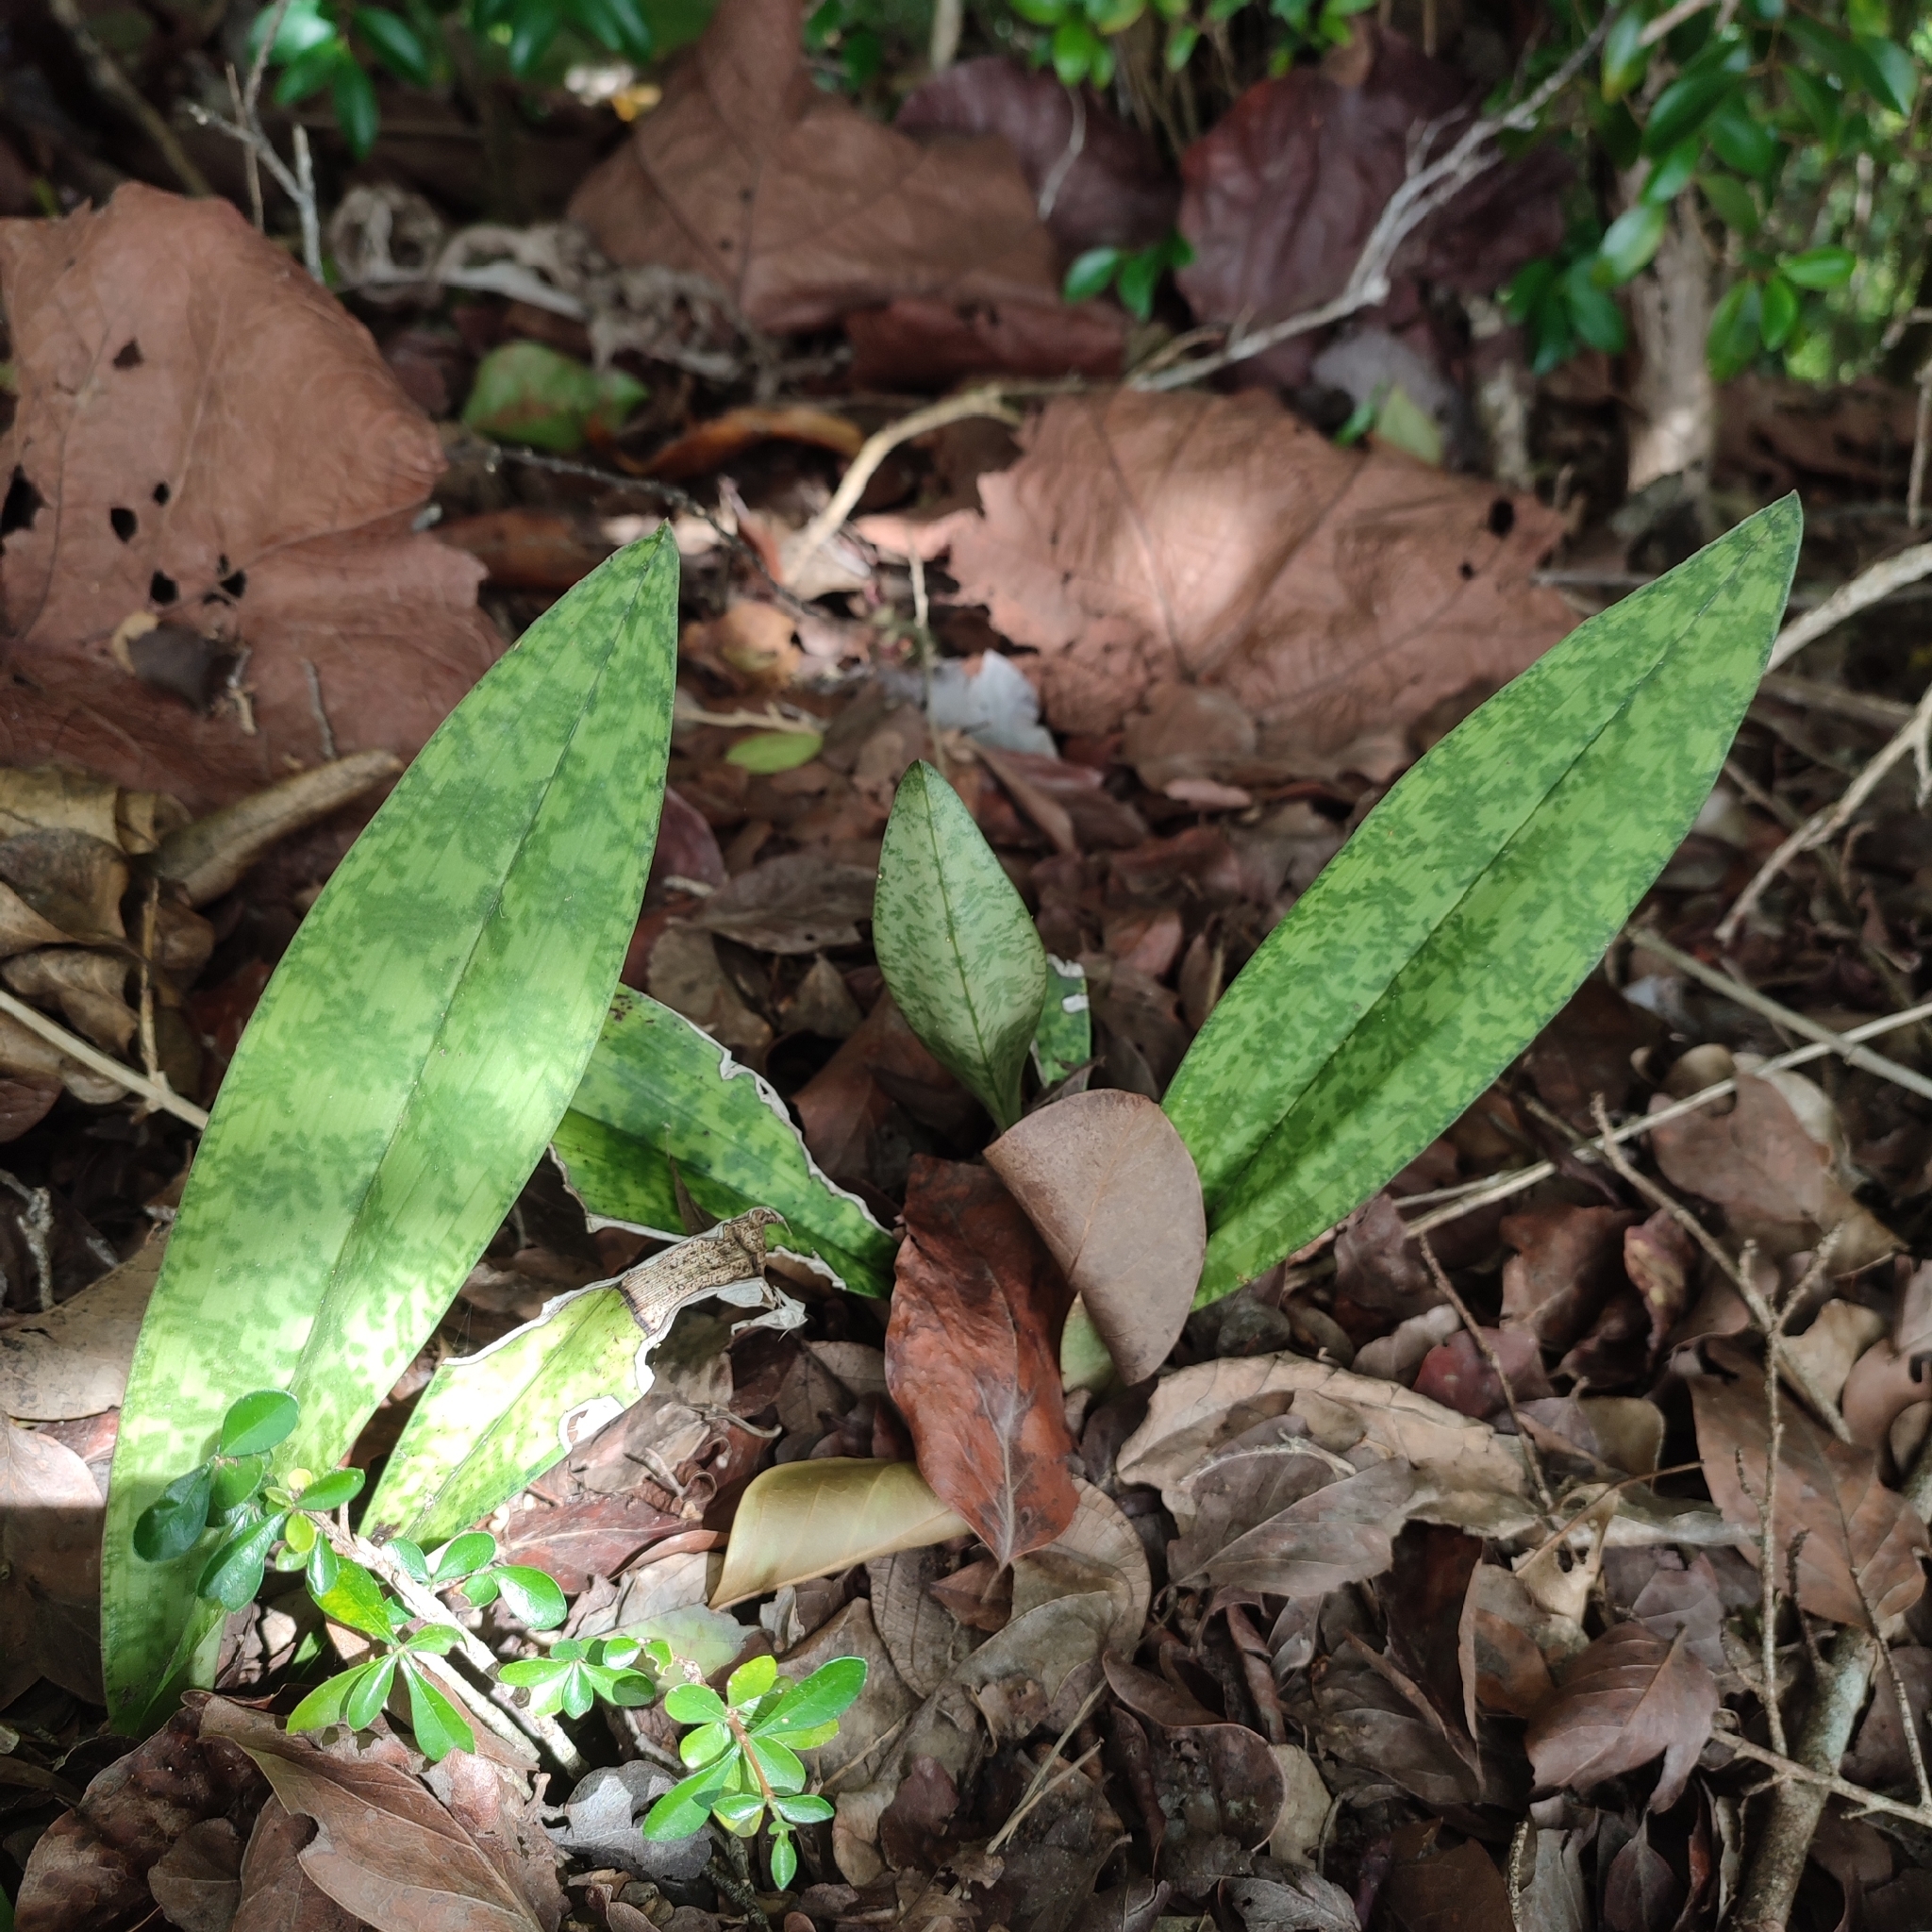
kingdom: Plantae
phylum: Tracheophyta
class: Liliopsida
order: Asparagales
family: Orchidaceae
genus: Eulophia
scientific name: Eulophia maculata
